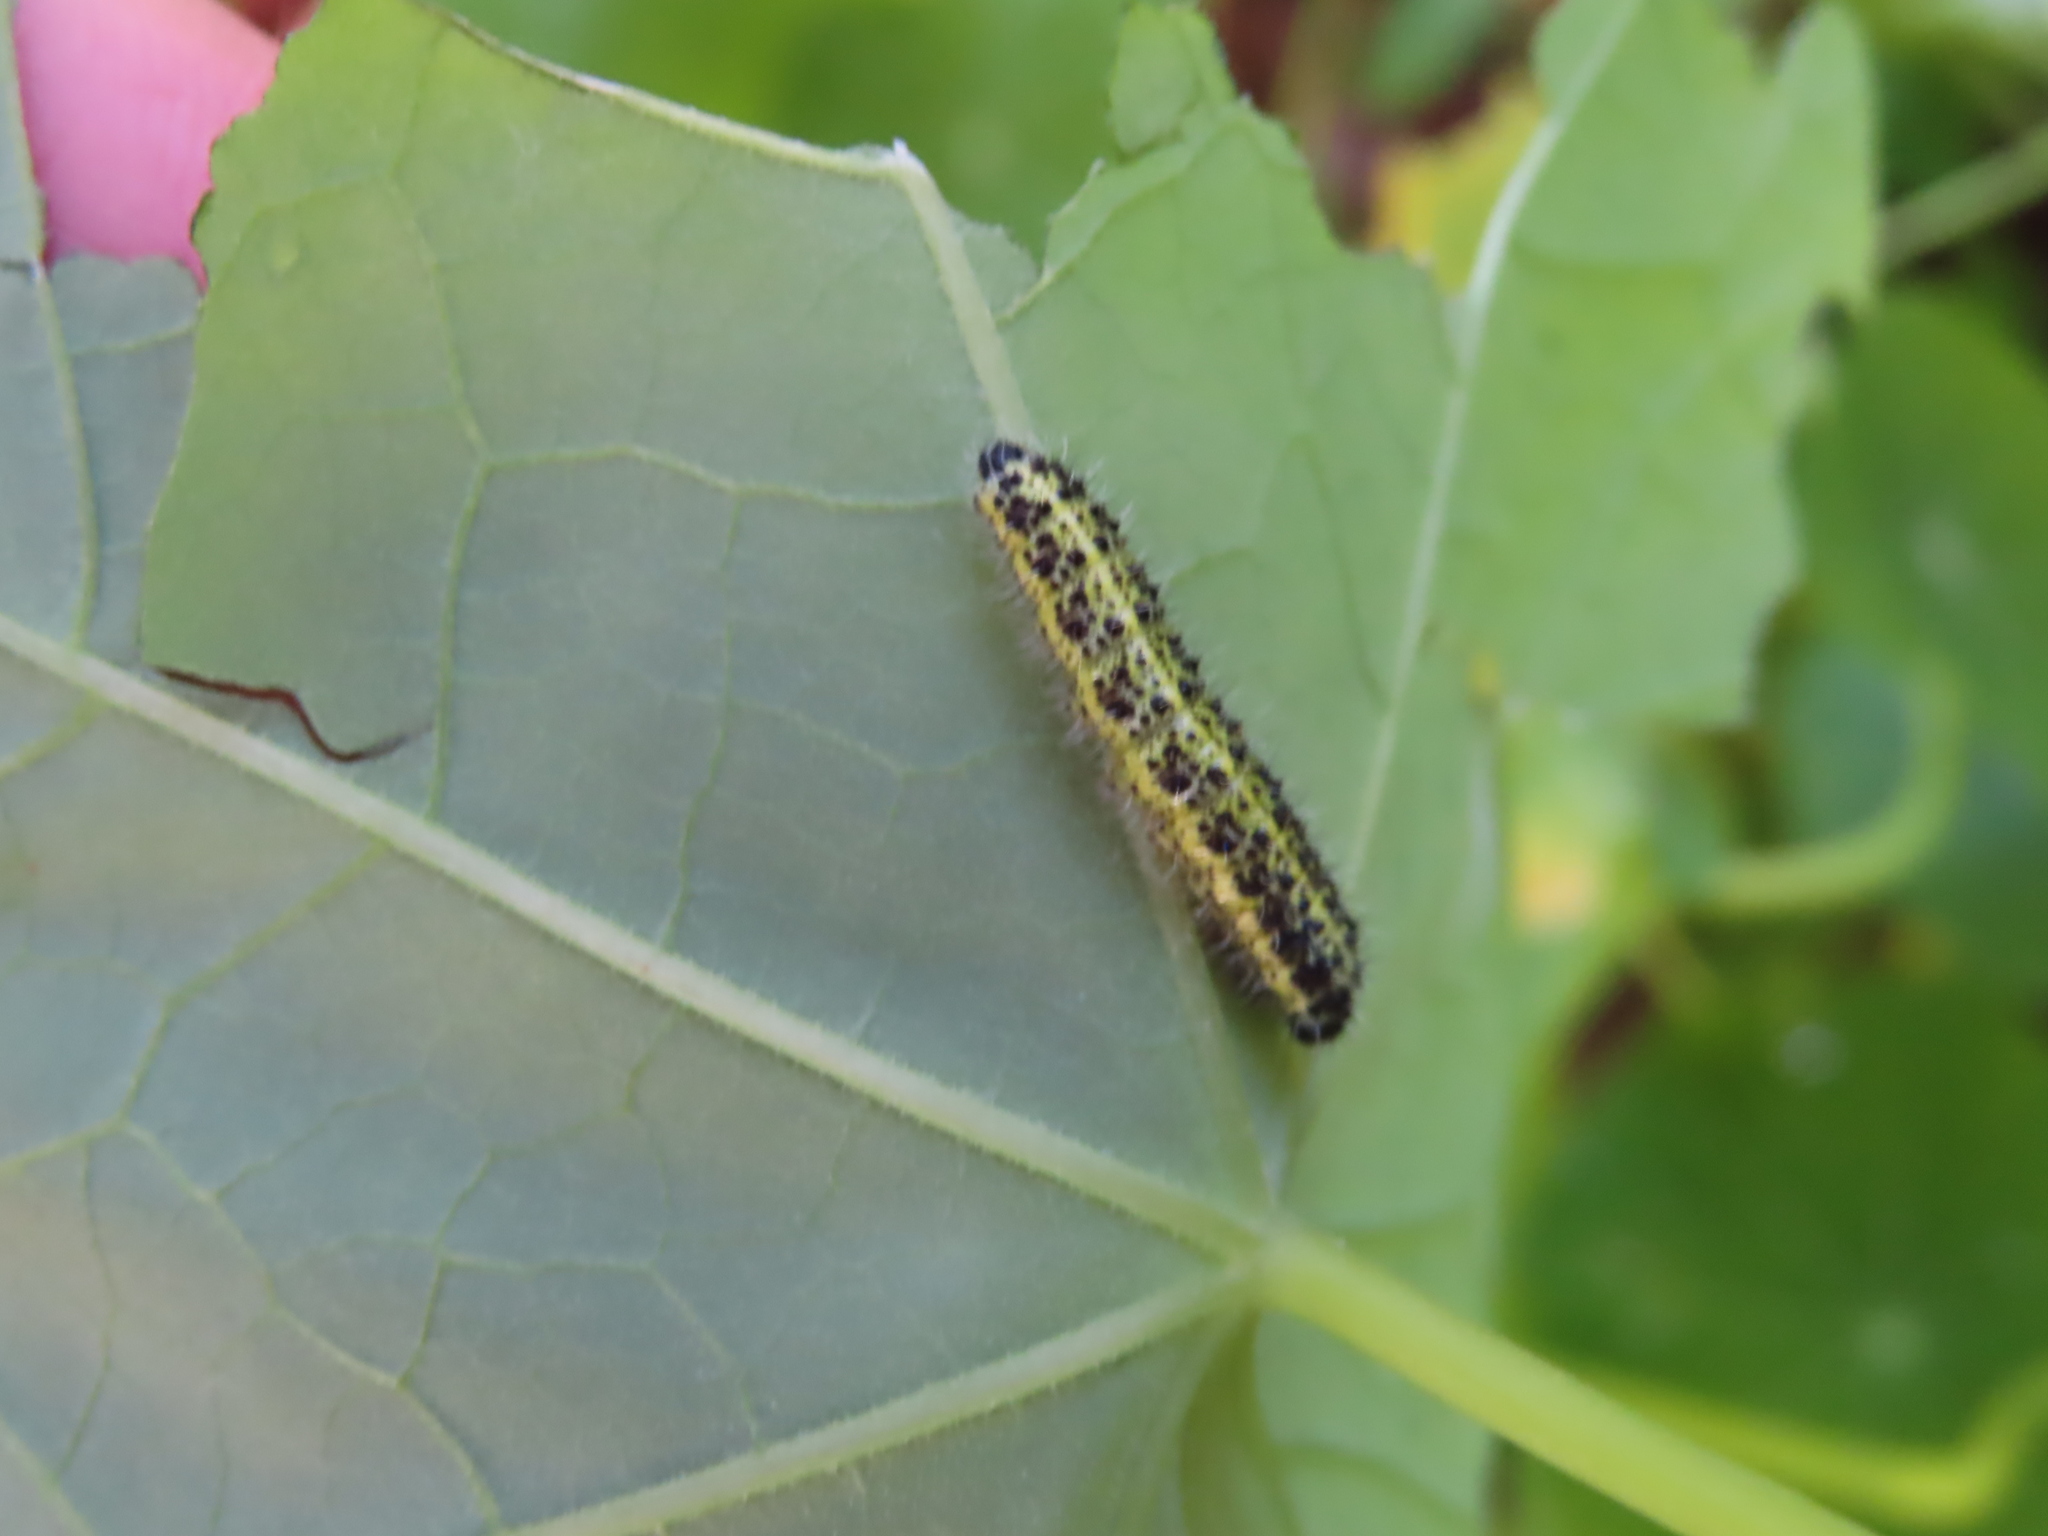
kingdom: Animalia
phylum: Arthropoda
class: Insecta
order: Lepidoptera
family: Pieridae
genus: Pieris
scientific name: Pieris brassicae
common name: Large white
